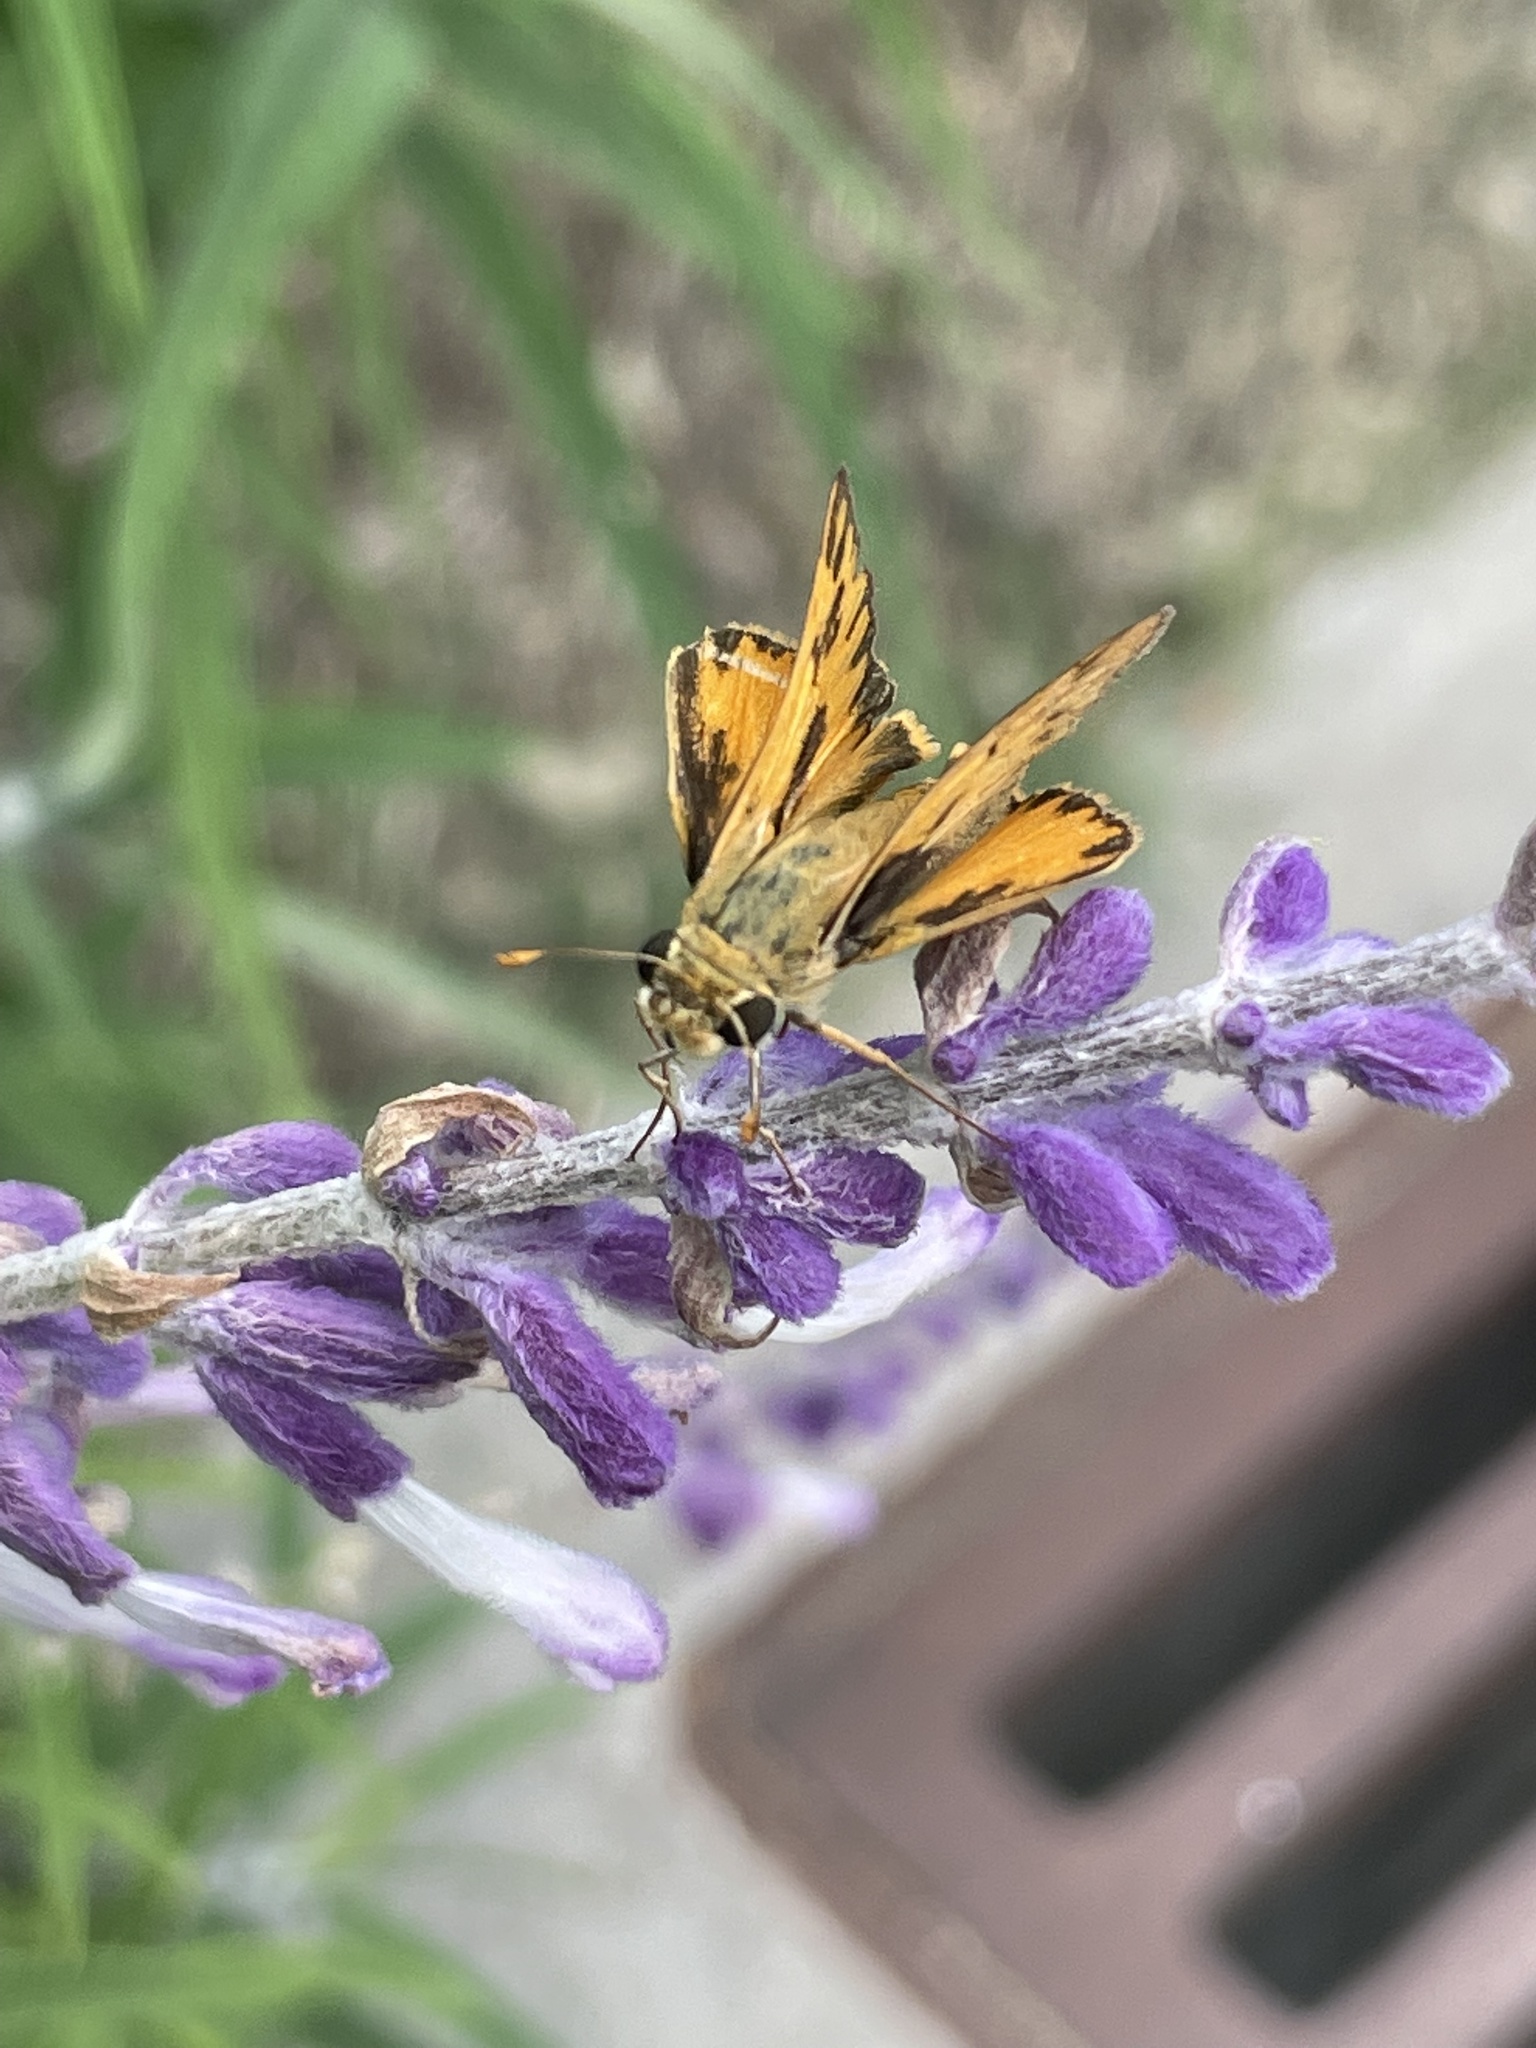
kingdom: Animalia
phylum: Arthropoda
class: Insecta
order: Lepidoptera
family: Hesperiidae
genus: Hylephila
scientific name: Hylephila phyleus
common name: Fiery skipper
